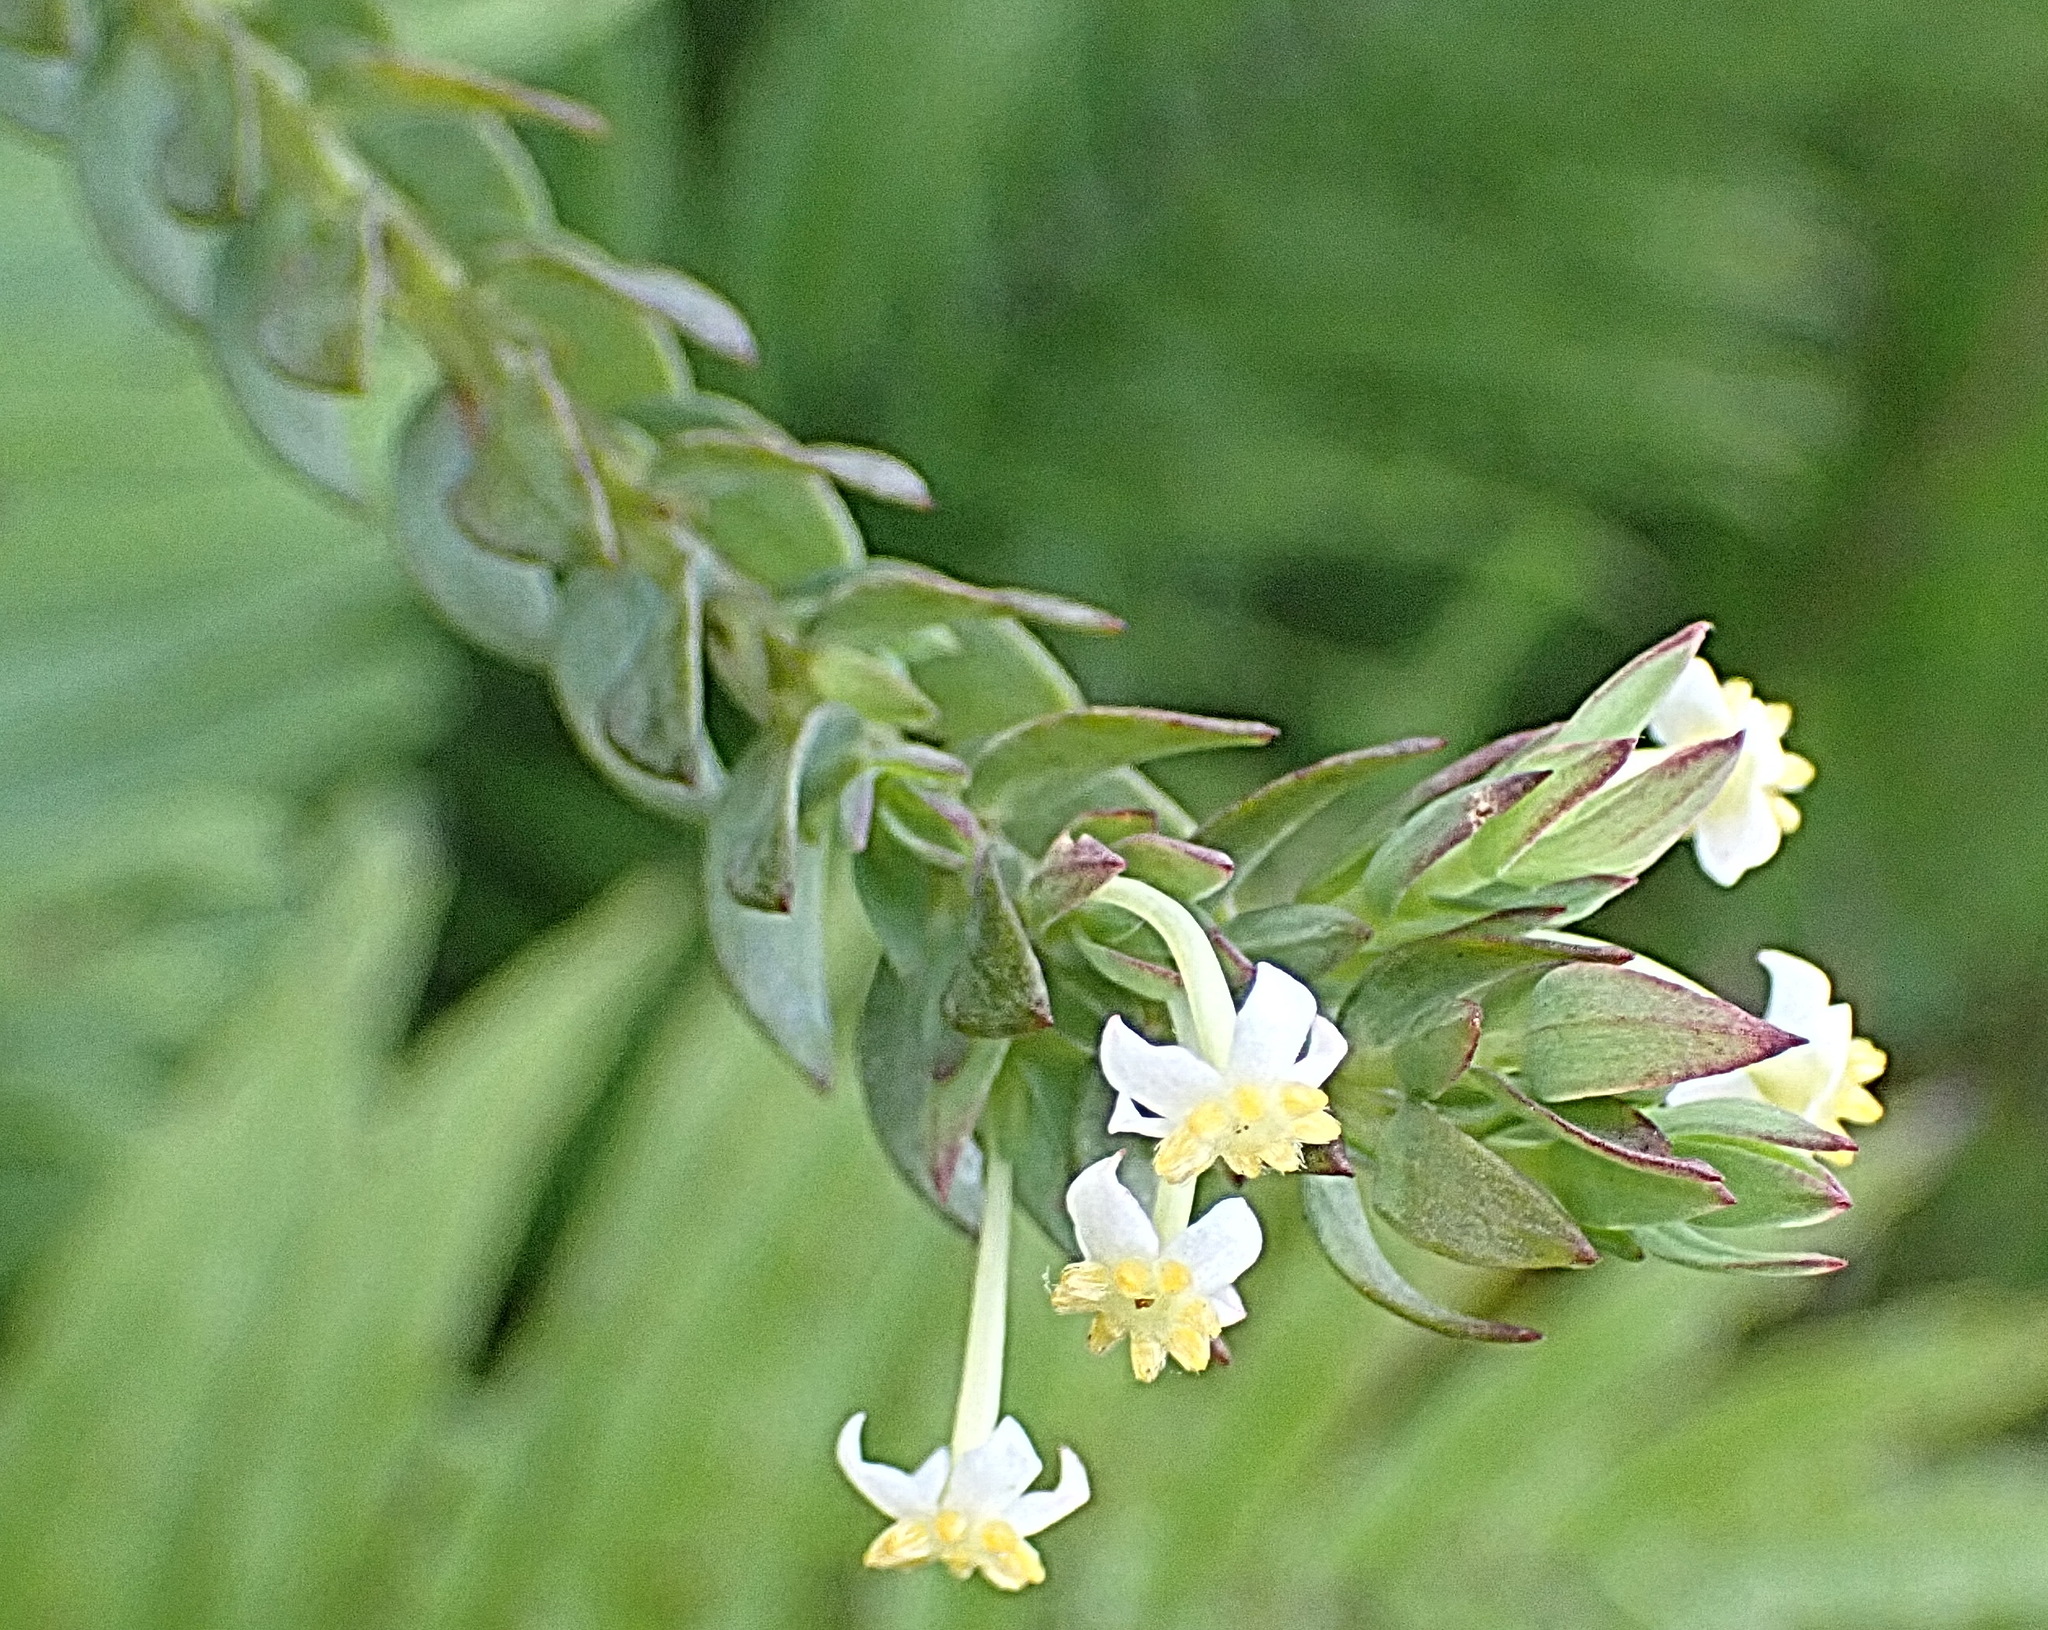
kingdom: Plantae
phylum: Tracheophyta
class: Magnoliopsida
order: Malvales
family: Thymelaeaceae
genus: Struthiola
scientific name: Struthiola hirsuta
